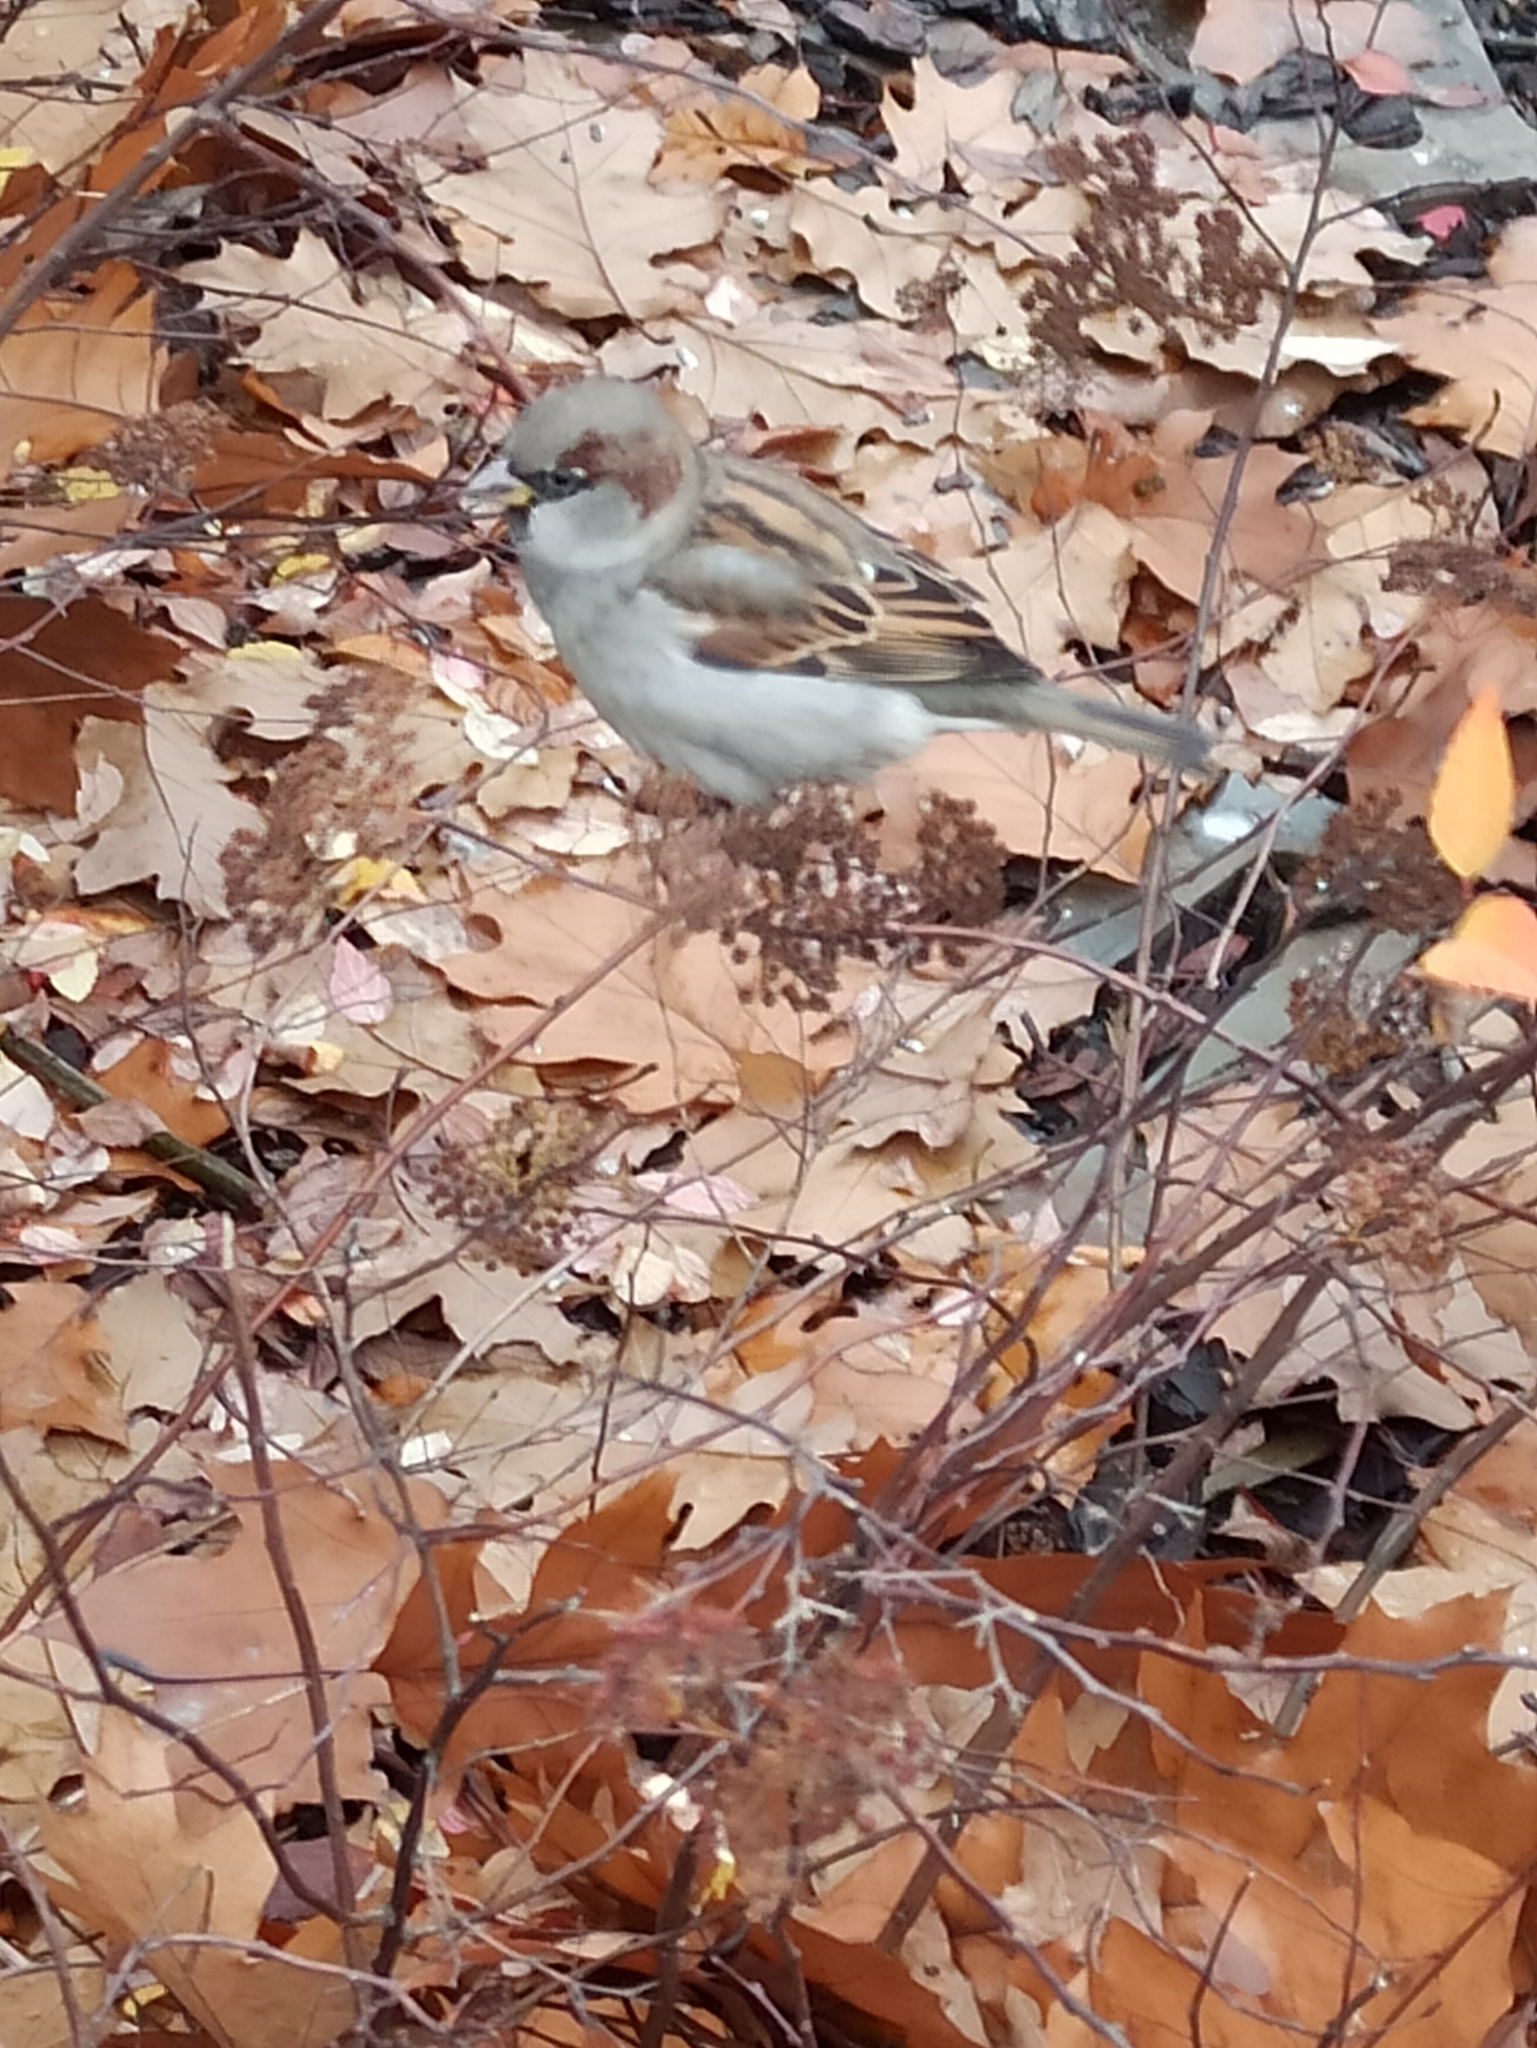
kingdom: Animalia
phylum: Chordata
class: Aves
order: Passeriformes
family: Passeridae
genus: Passer
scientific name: Passer domesticus
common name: House sparrow
